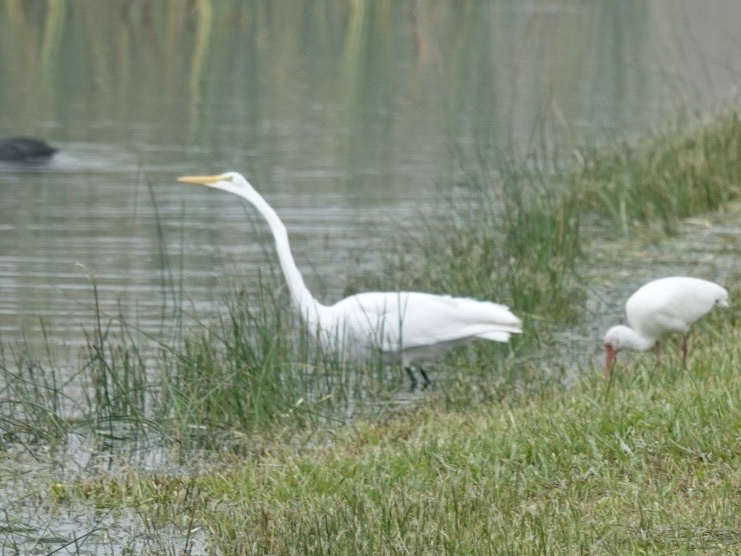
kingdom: Animalia
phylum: Chordata
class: Aves
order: Pelecaniformes
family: Ardeidae
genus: Ardea
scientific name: Ardea alba
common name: Great egret
